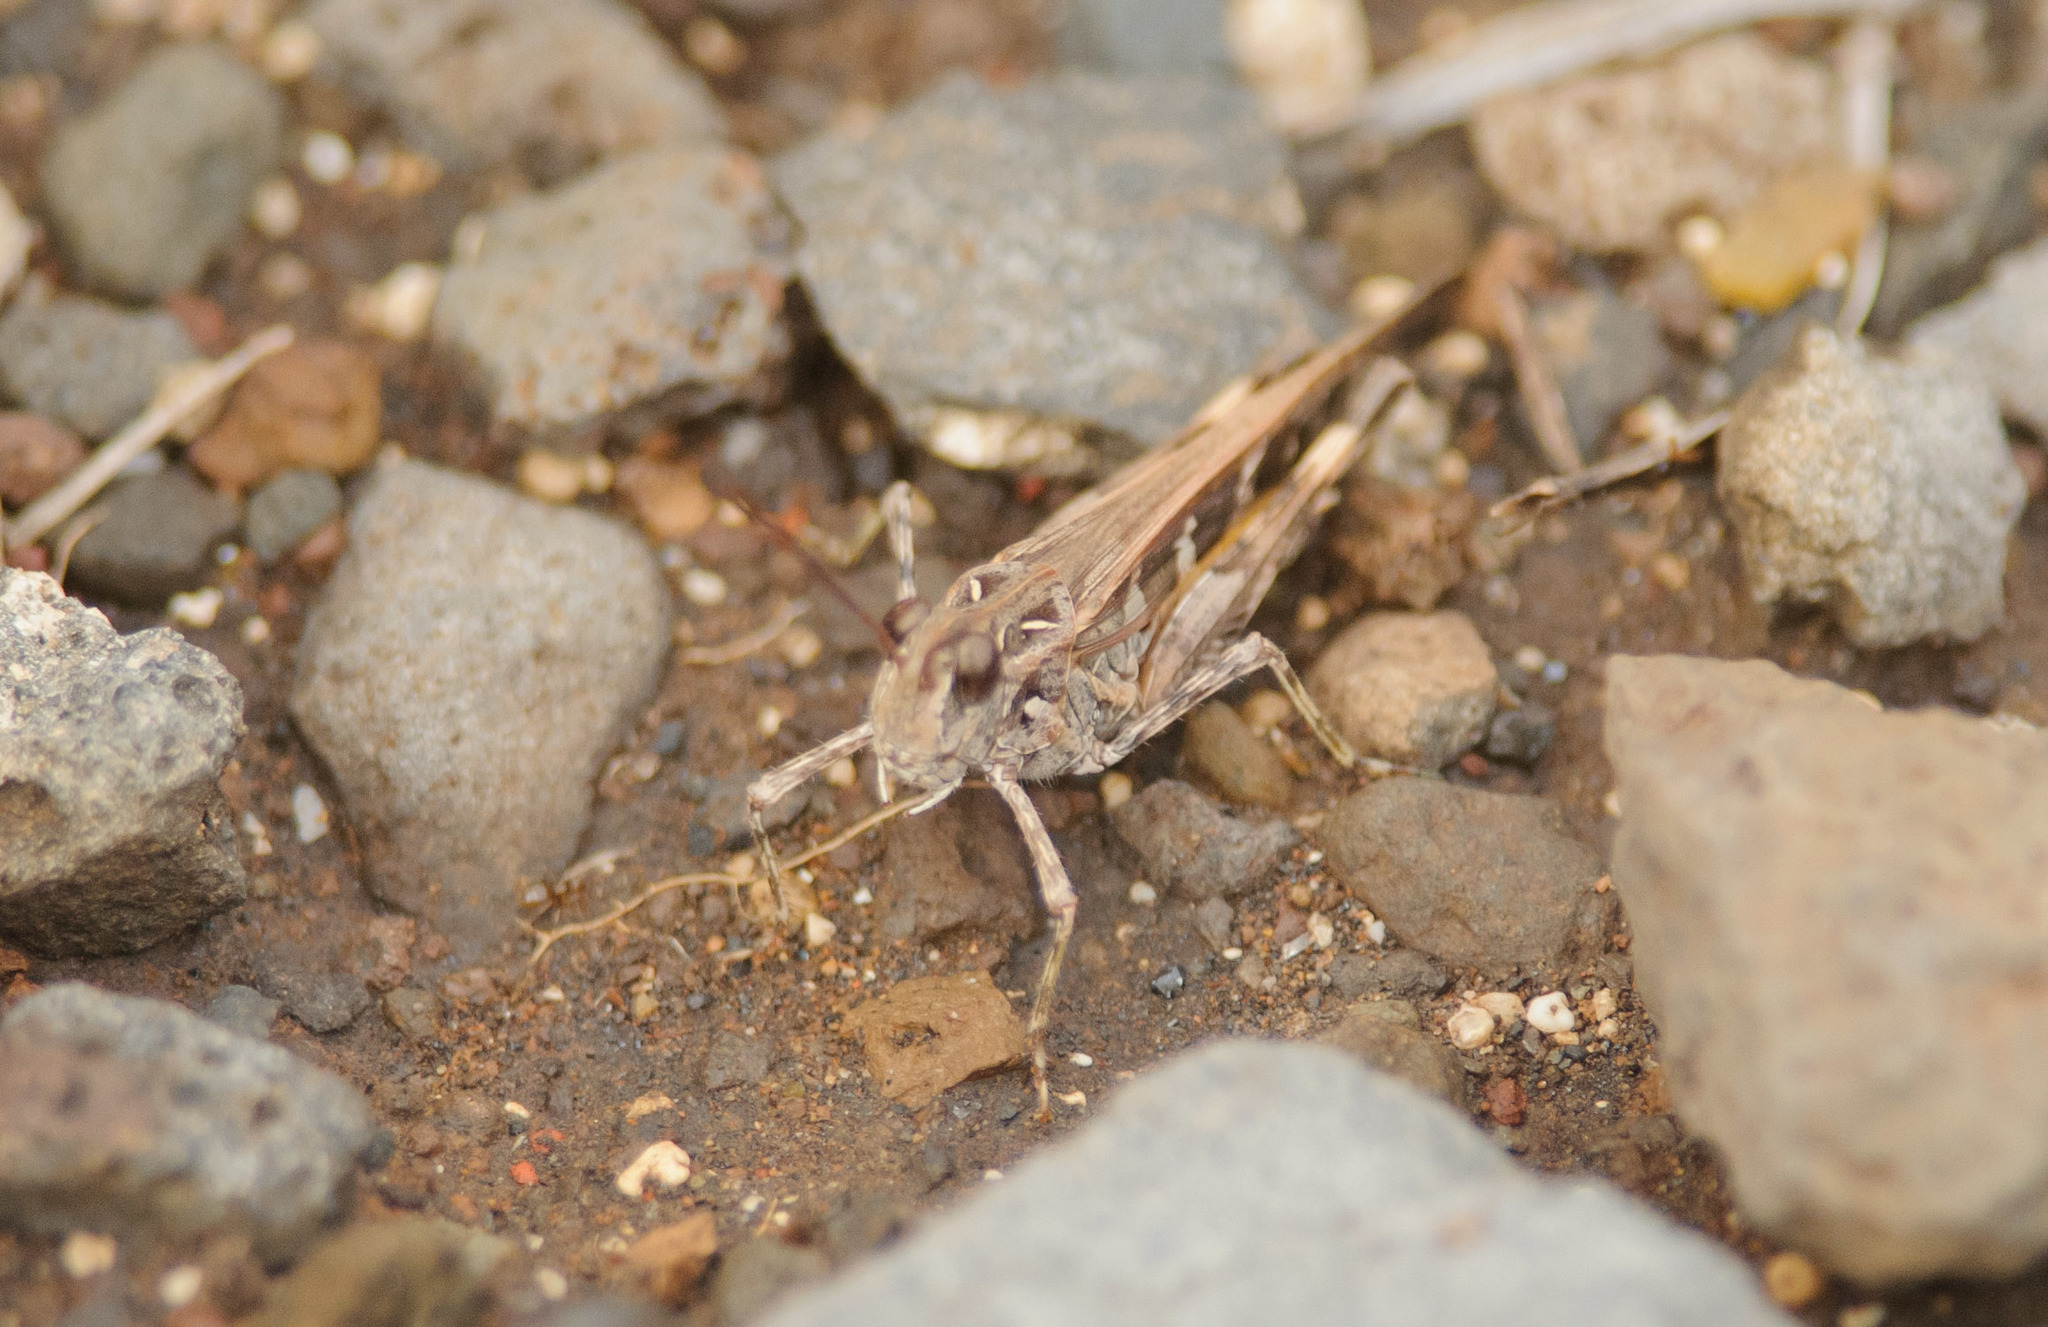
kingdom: Animalia
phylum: Arthropoda
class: Insecta
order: Orthoptera
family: Acrididae
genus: Oedaleus
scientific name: Oedaleus abruptus
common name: Grasshopper
